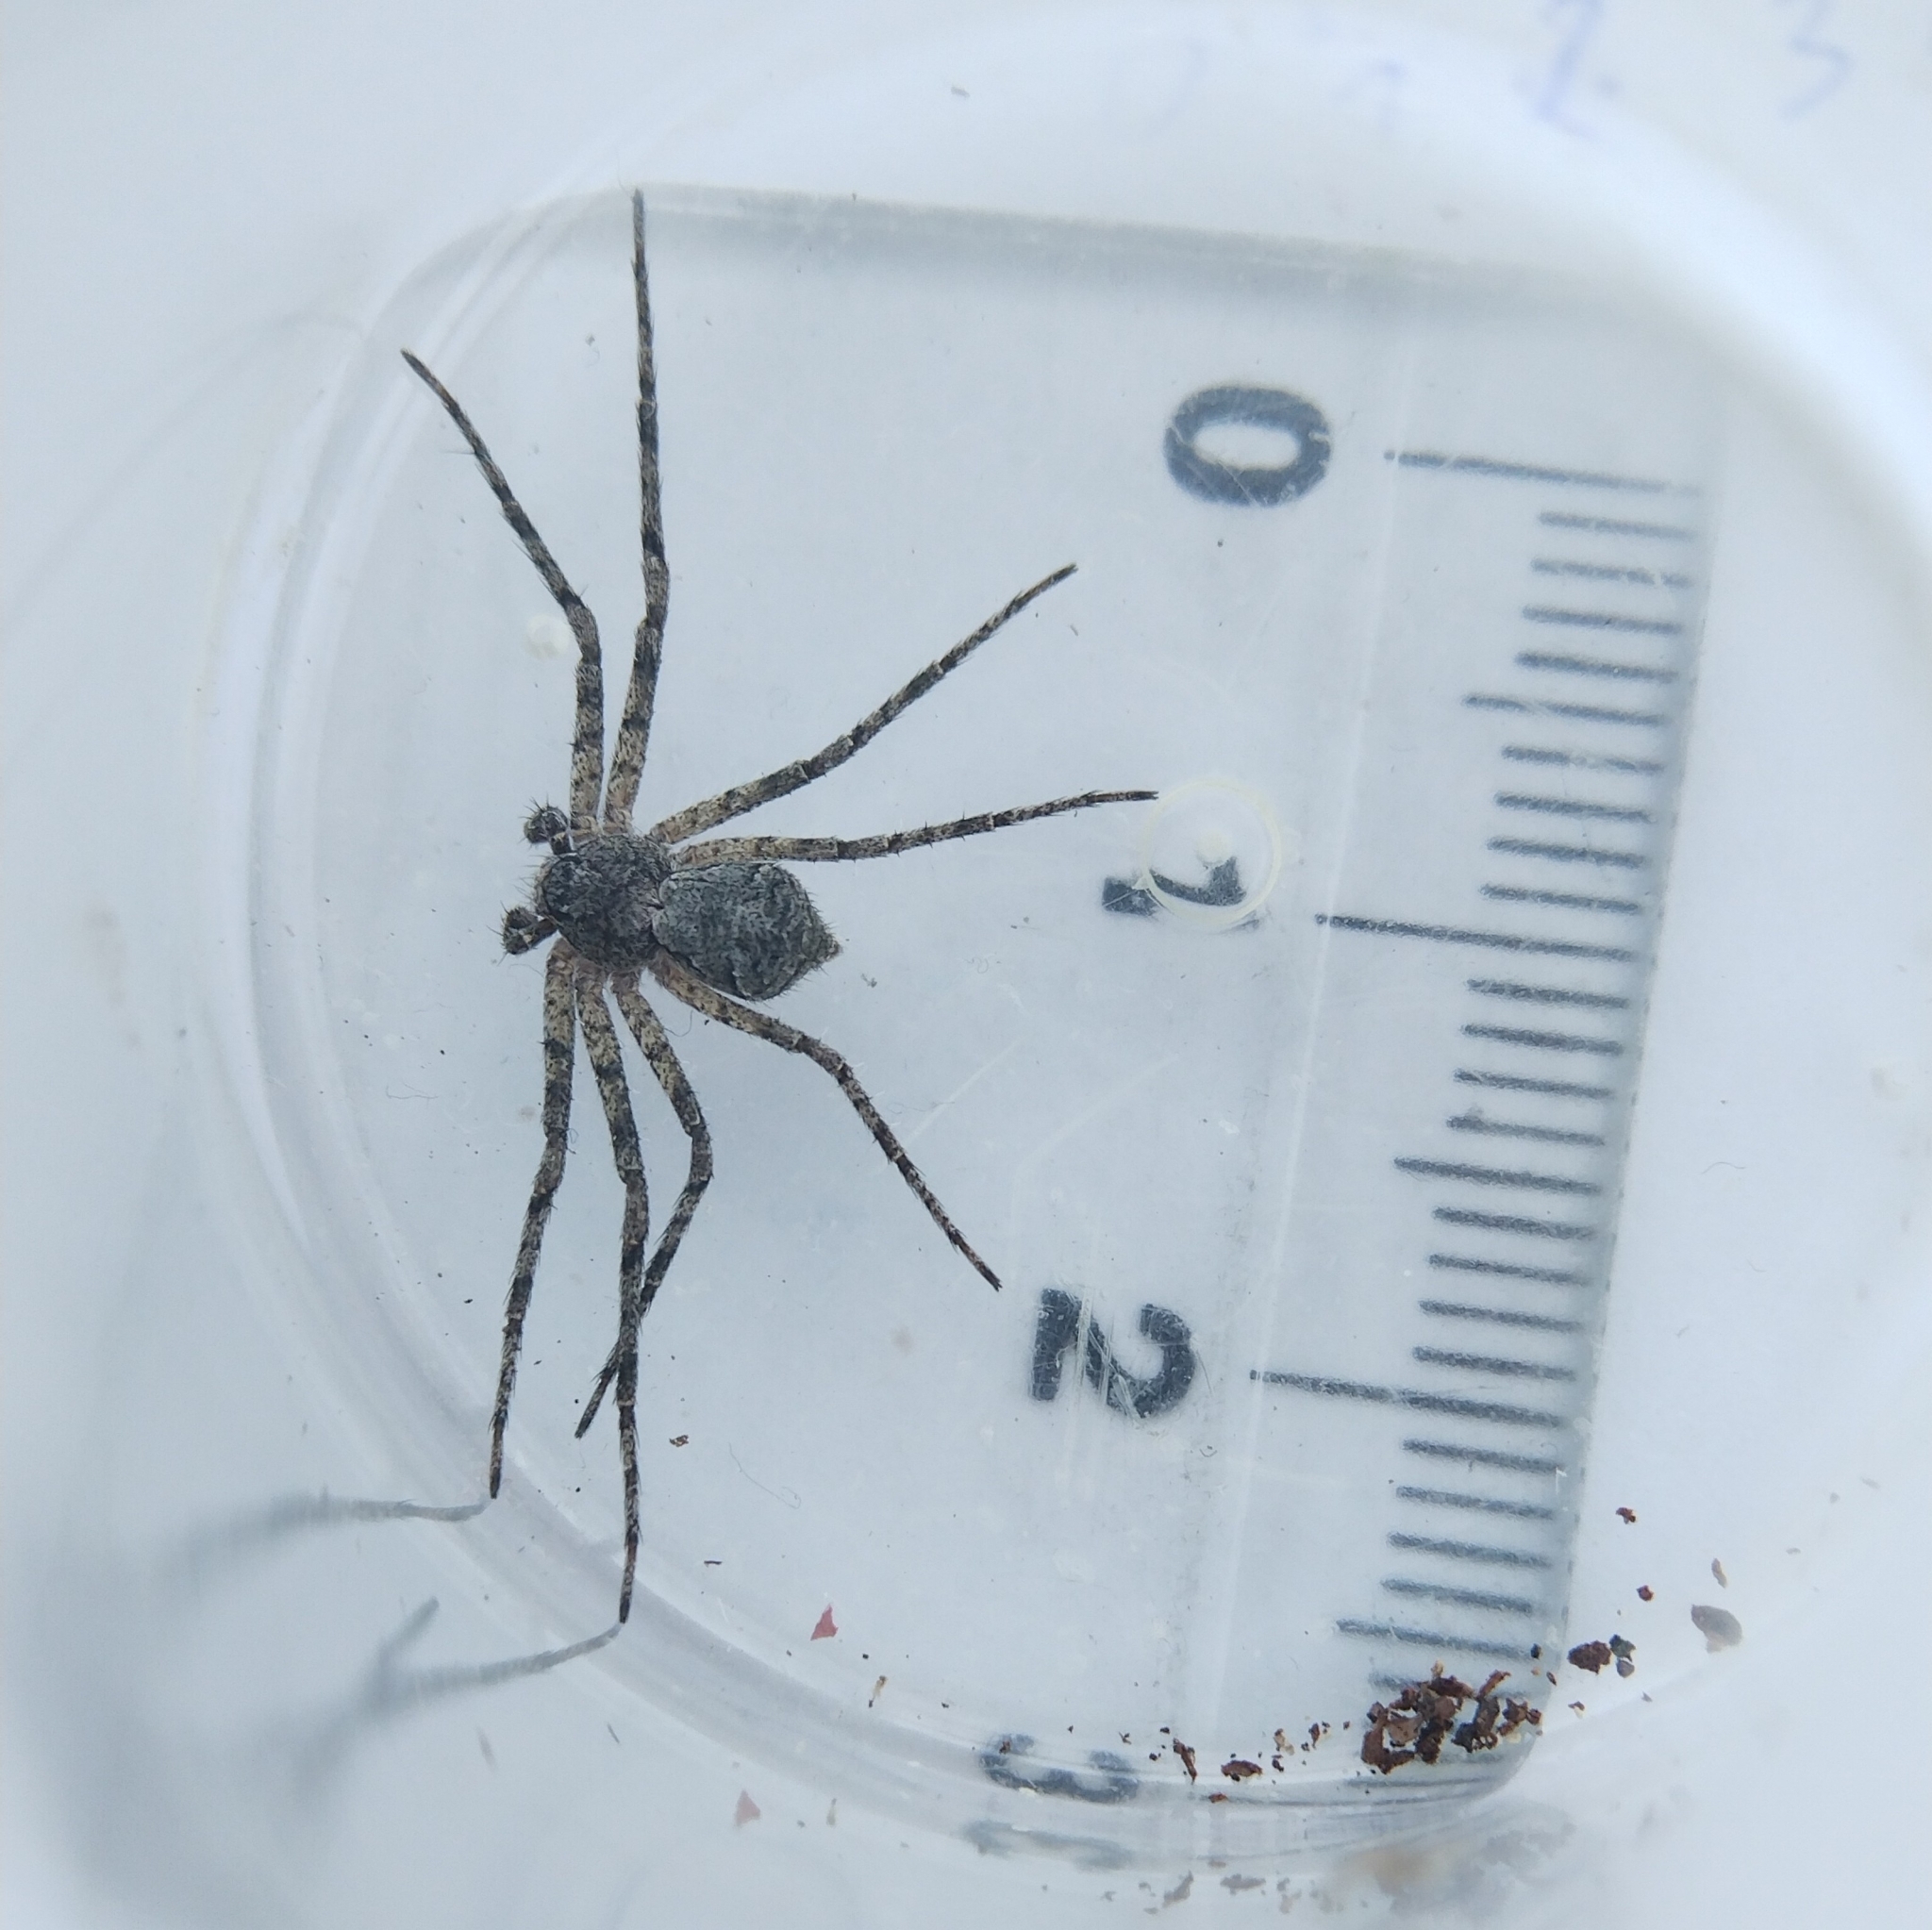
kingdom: Animalia
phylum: Arthropoda
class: Arachnida
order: Araneae
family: Philodromidae
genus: Philodromus
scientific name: Philodromus margaritatus
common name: Lichen running-spider
